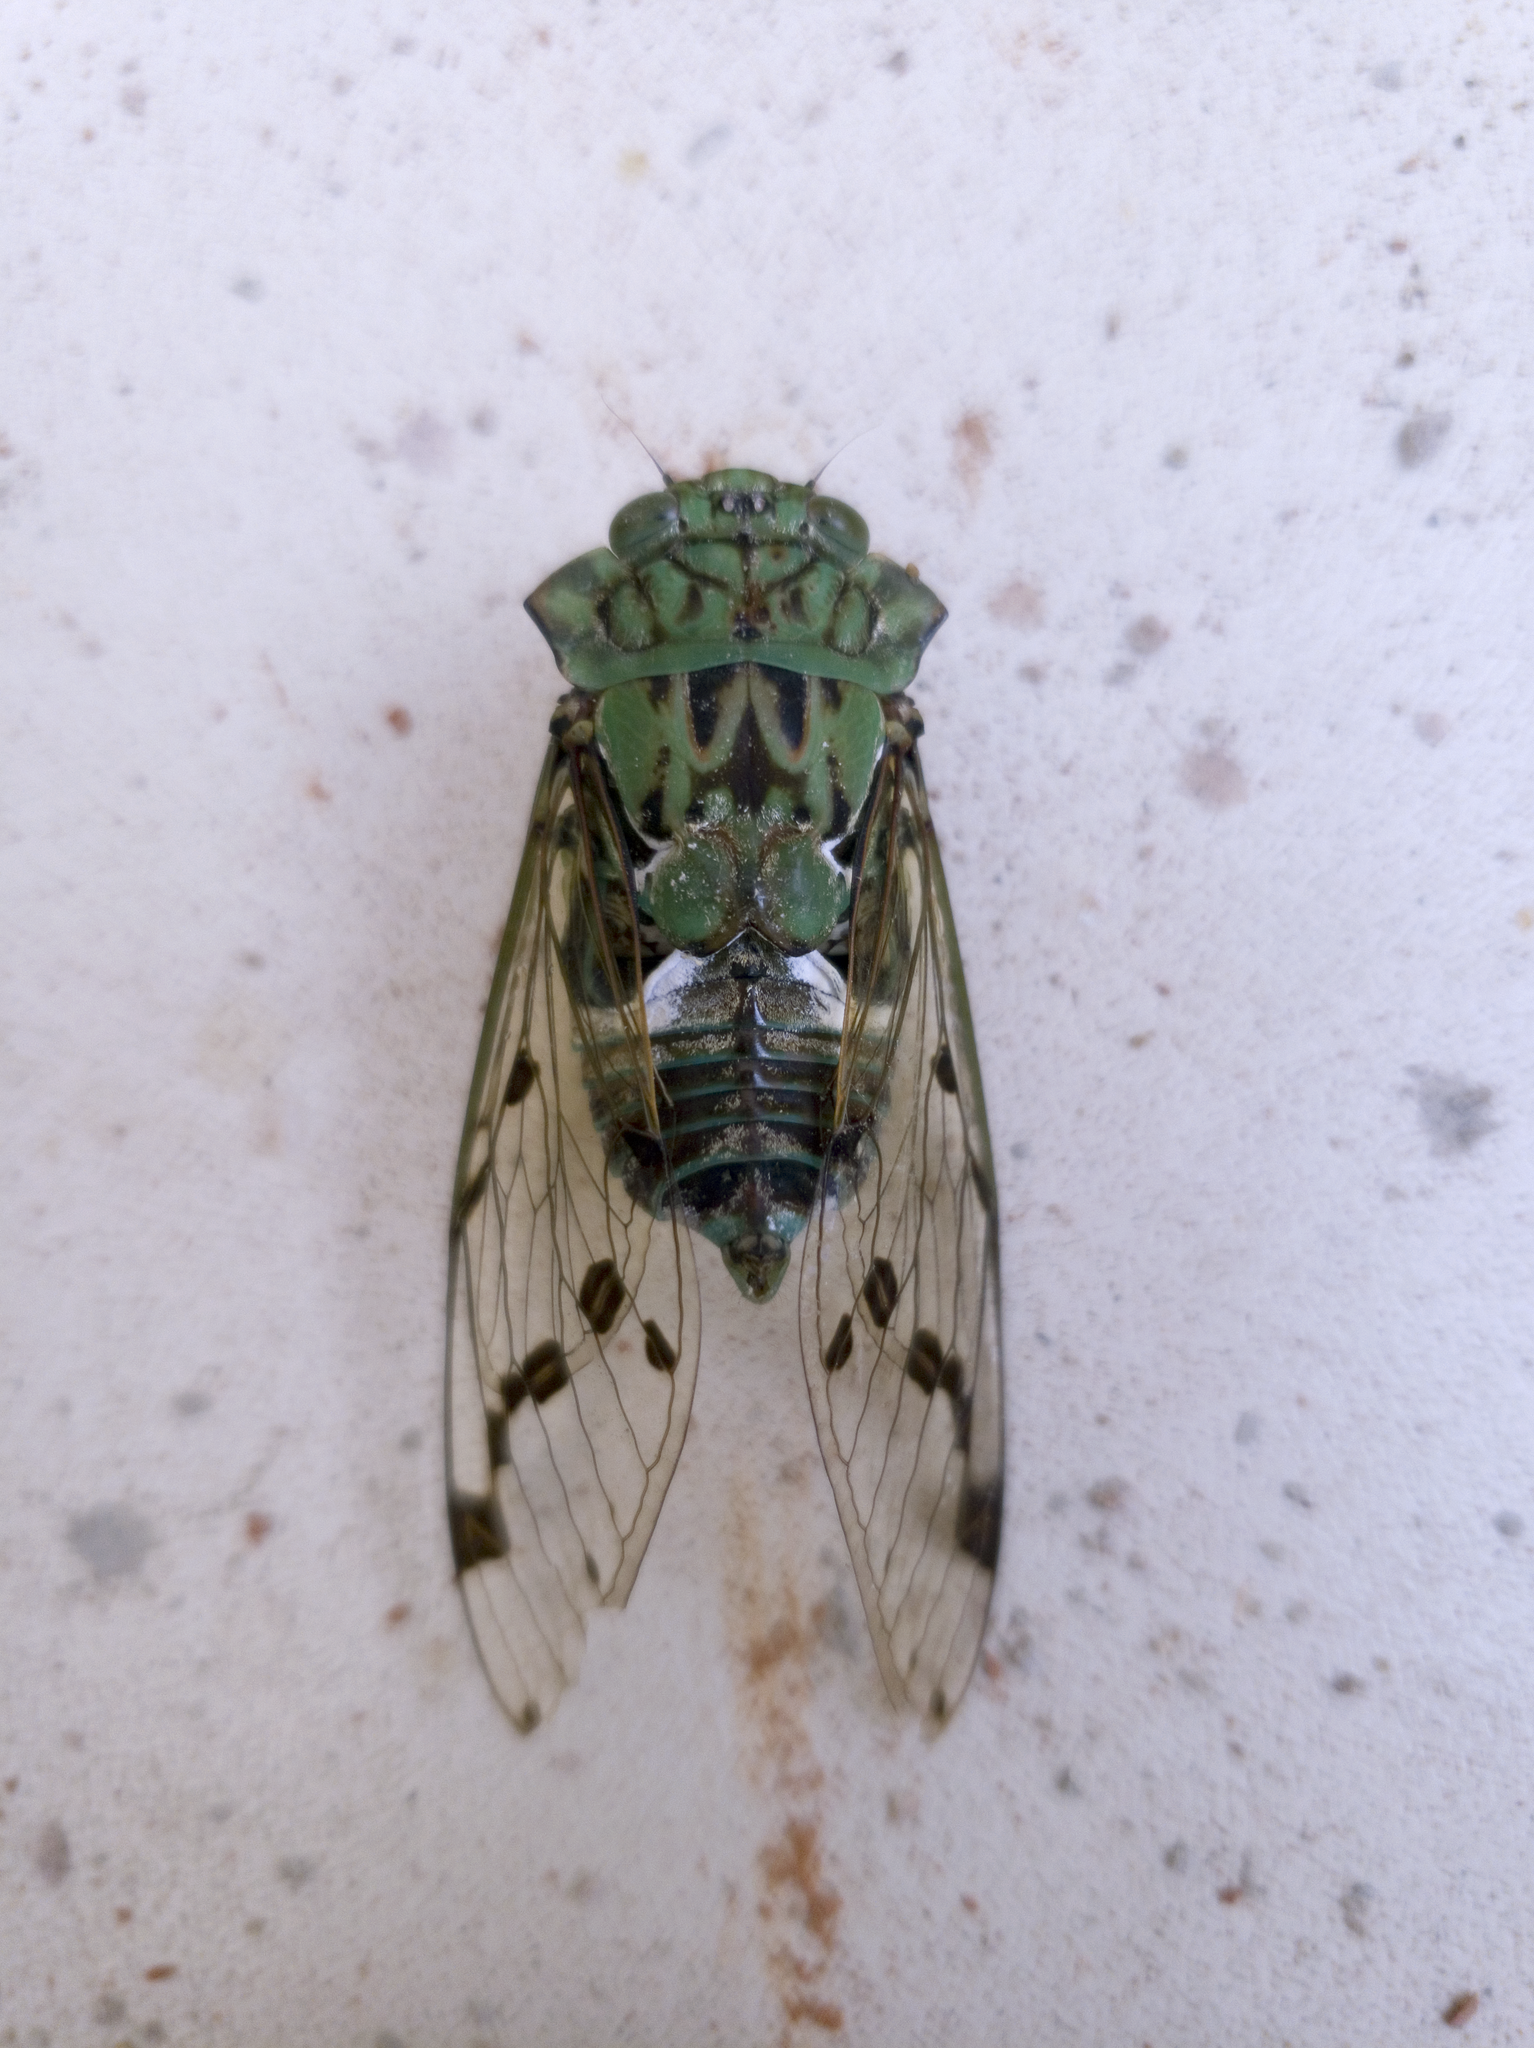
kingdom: Animalia
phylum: Arthropoda
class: Insecta
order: Hemiptera
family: Cicadidae
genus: Zammara
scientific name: Zammara tympanum
